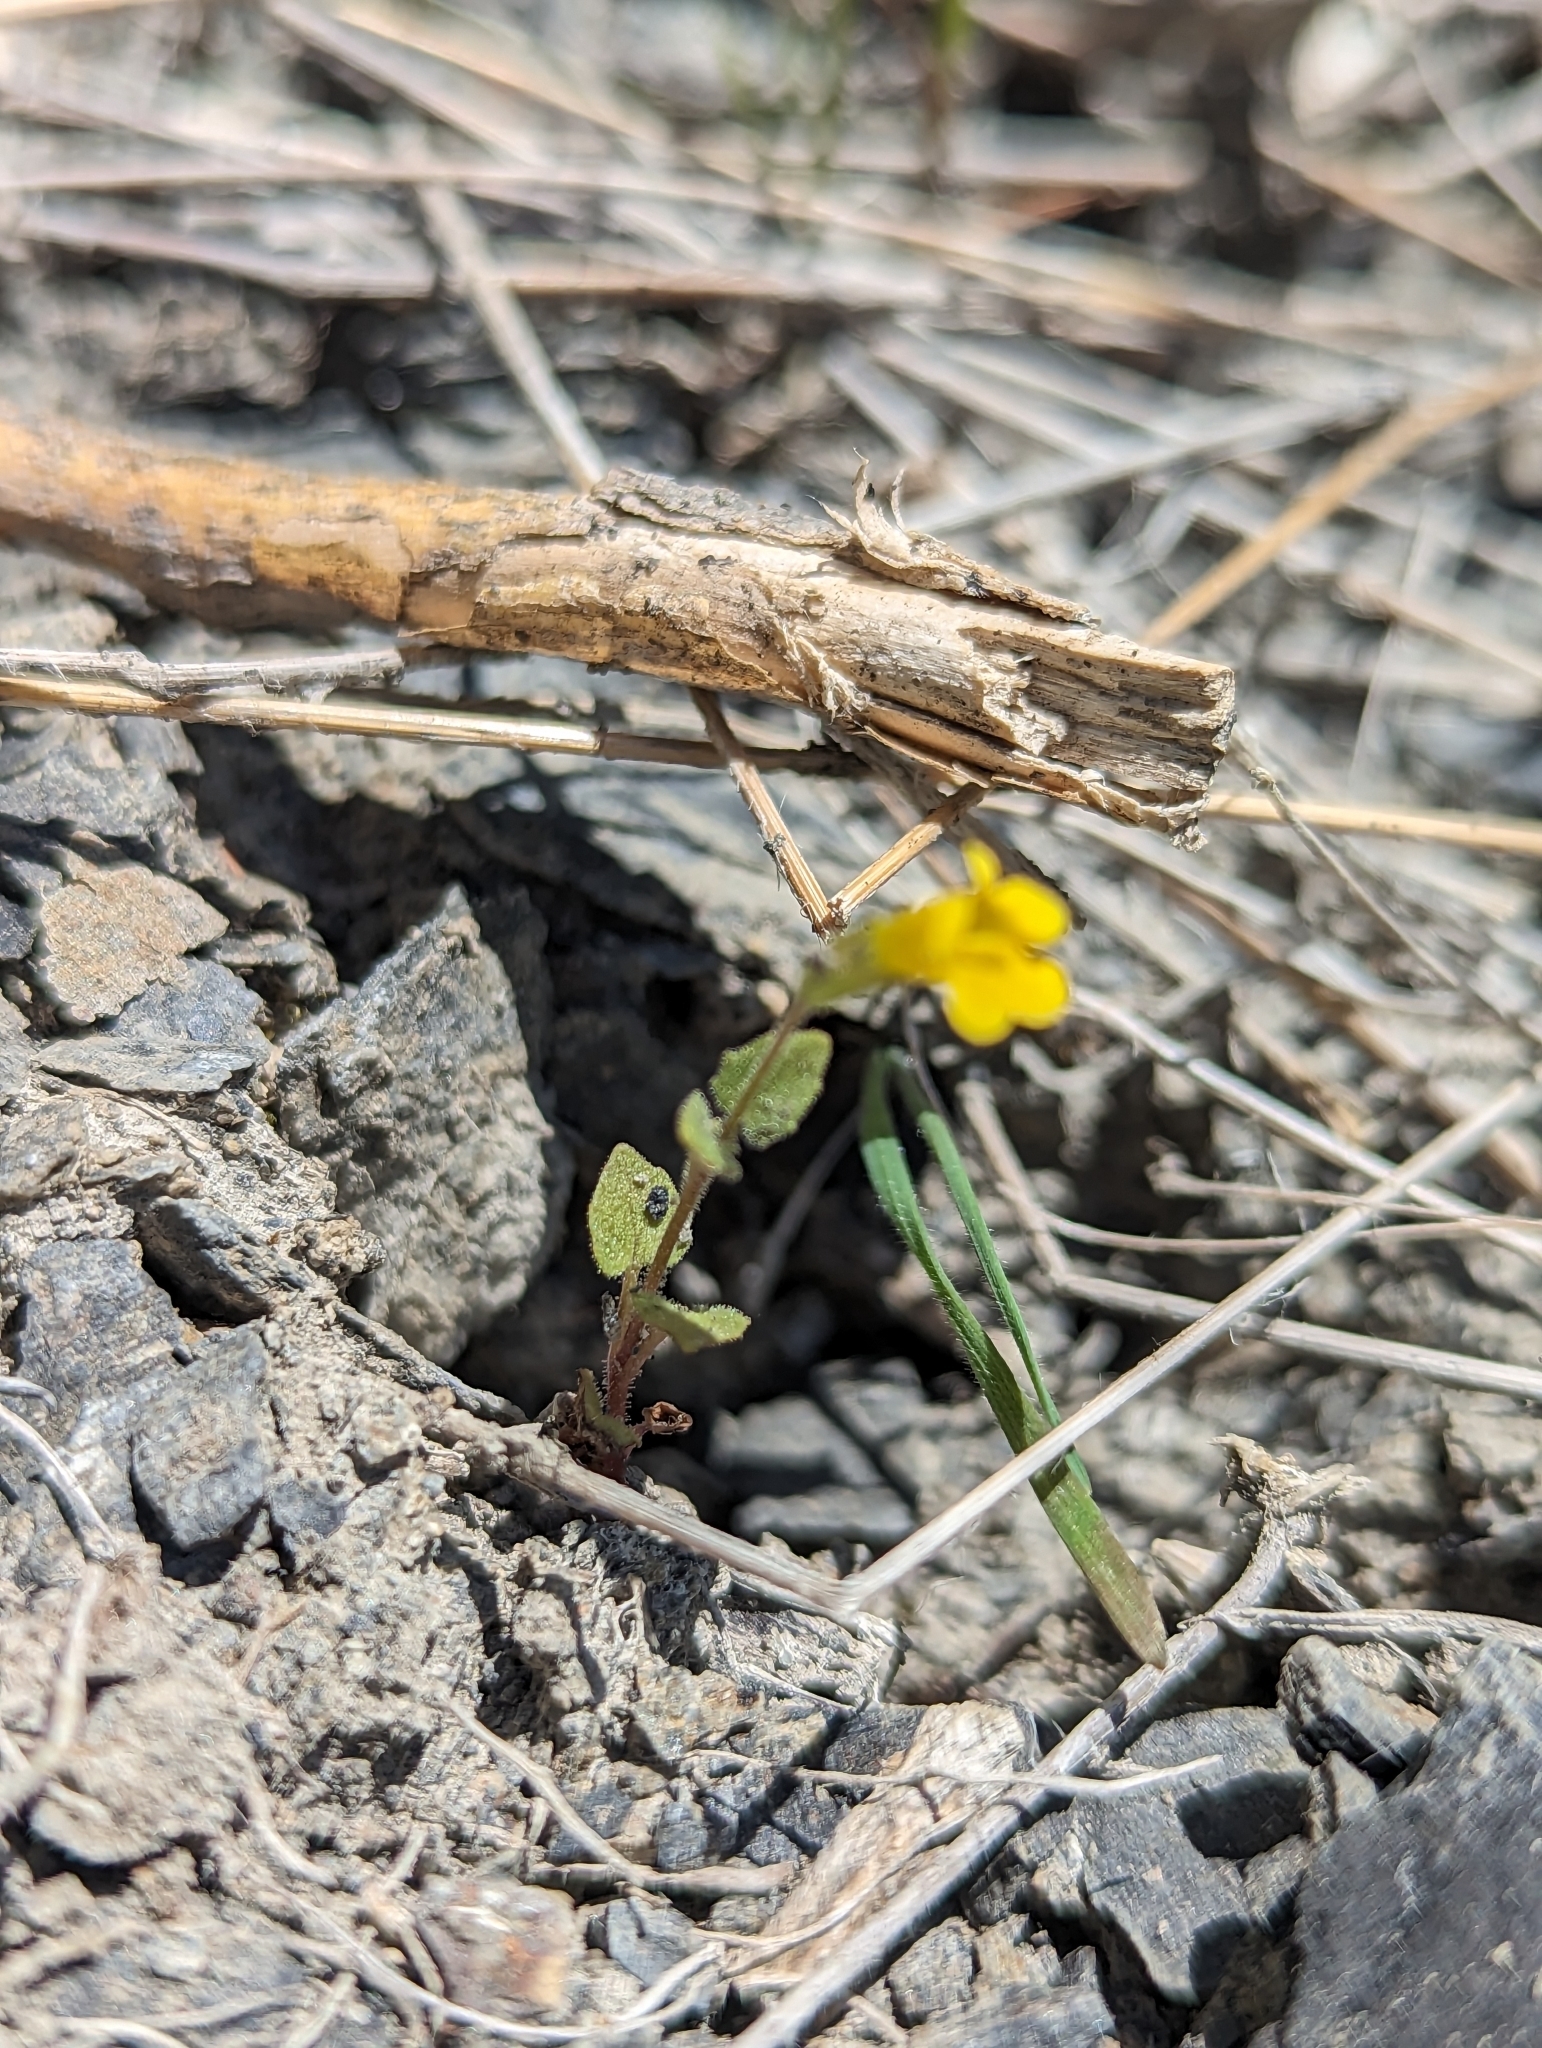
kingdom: Plantae
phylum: Tracheophyta
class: Magnoliopsida
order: Lamiales
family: Phrymaceae
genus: Erythranthe
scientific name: Erythranthe patula
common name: Stalk-leaved monkeyflower
